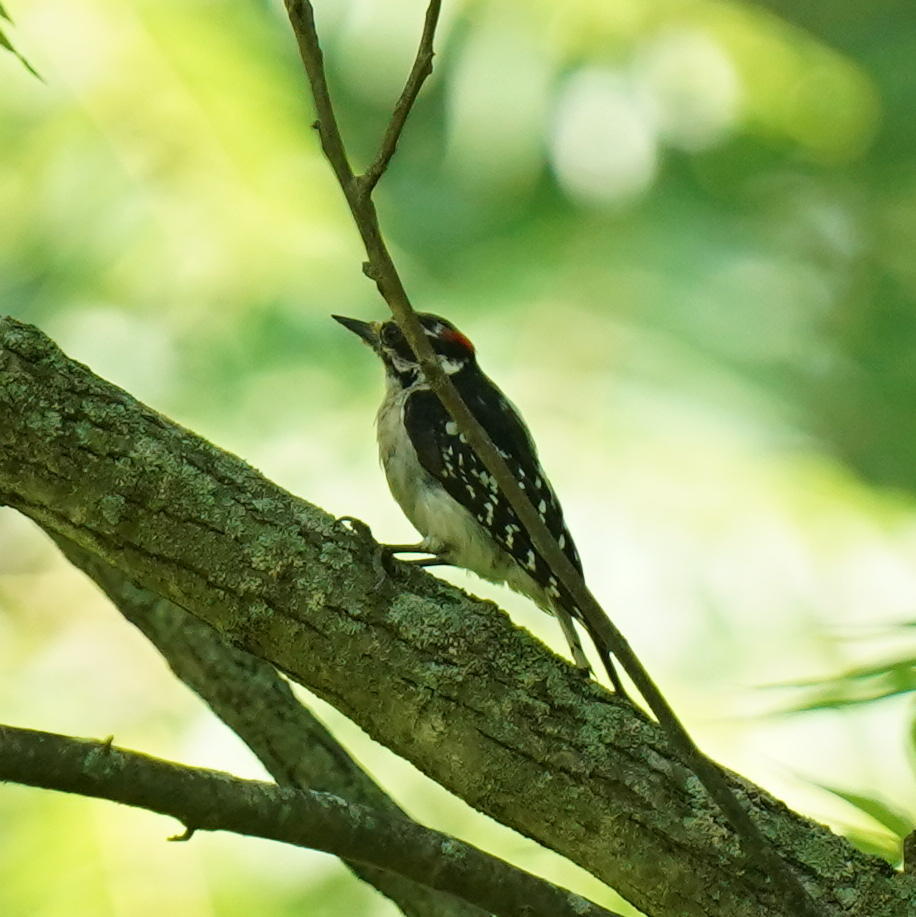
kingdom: Animalia
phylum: Chordata
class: Aves
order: Piciformes
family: Picidae
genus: Dryobates
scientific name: Dryobates pubescens
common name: Downy woodpecker
